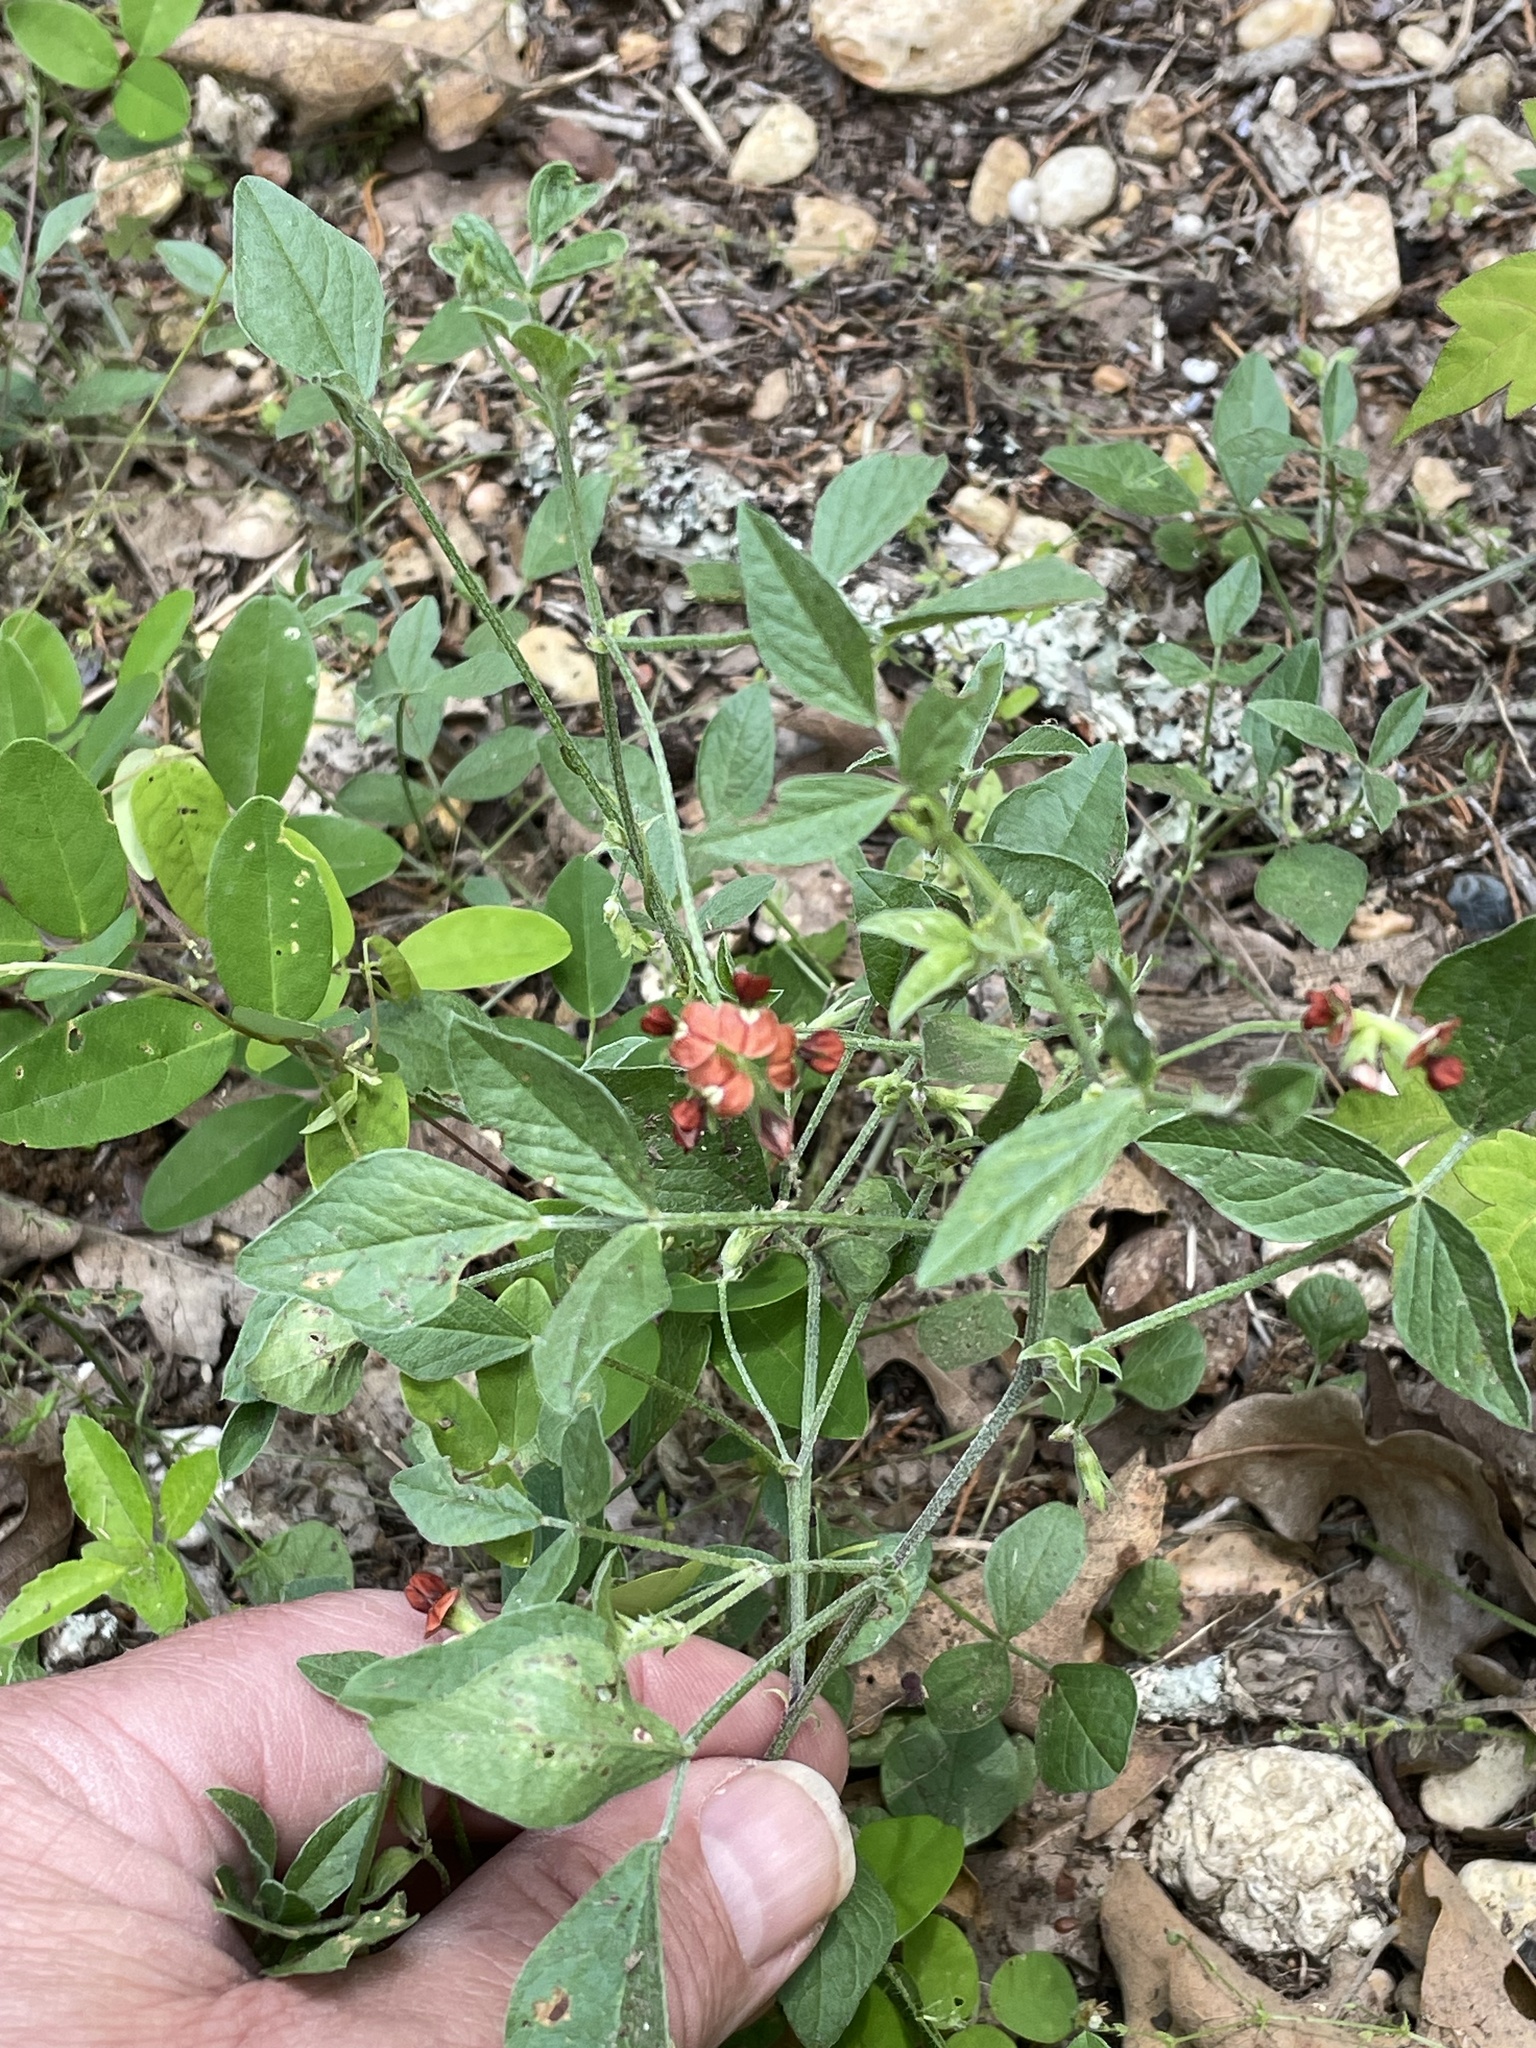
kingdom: Plantae
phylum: Tracheophyta
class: Magnoliopsida
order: Fabales
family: Fabaceae
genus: Pediomelum
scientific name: Pediomelum rhombifolium
